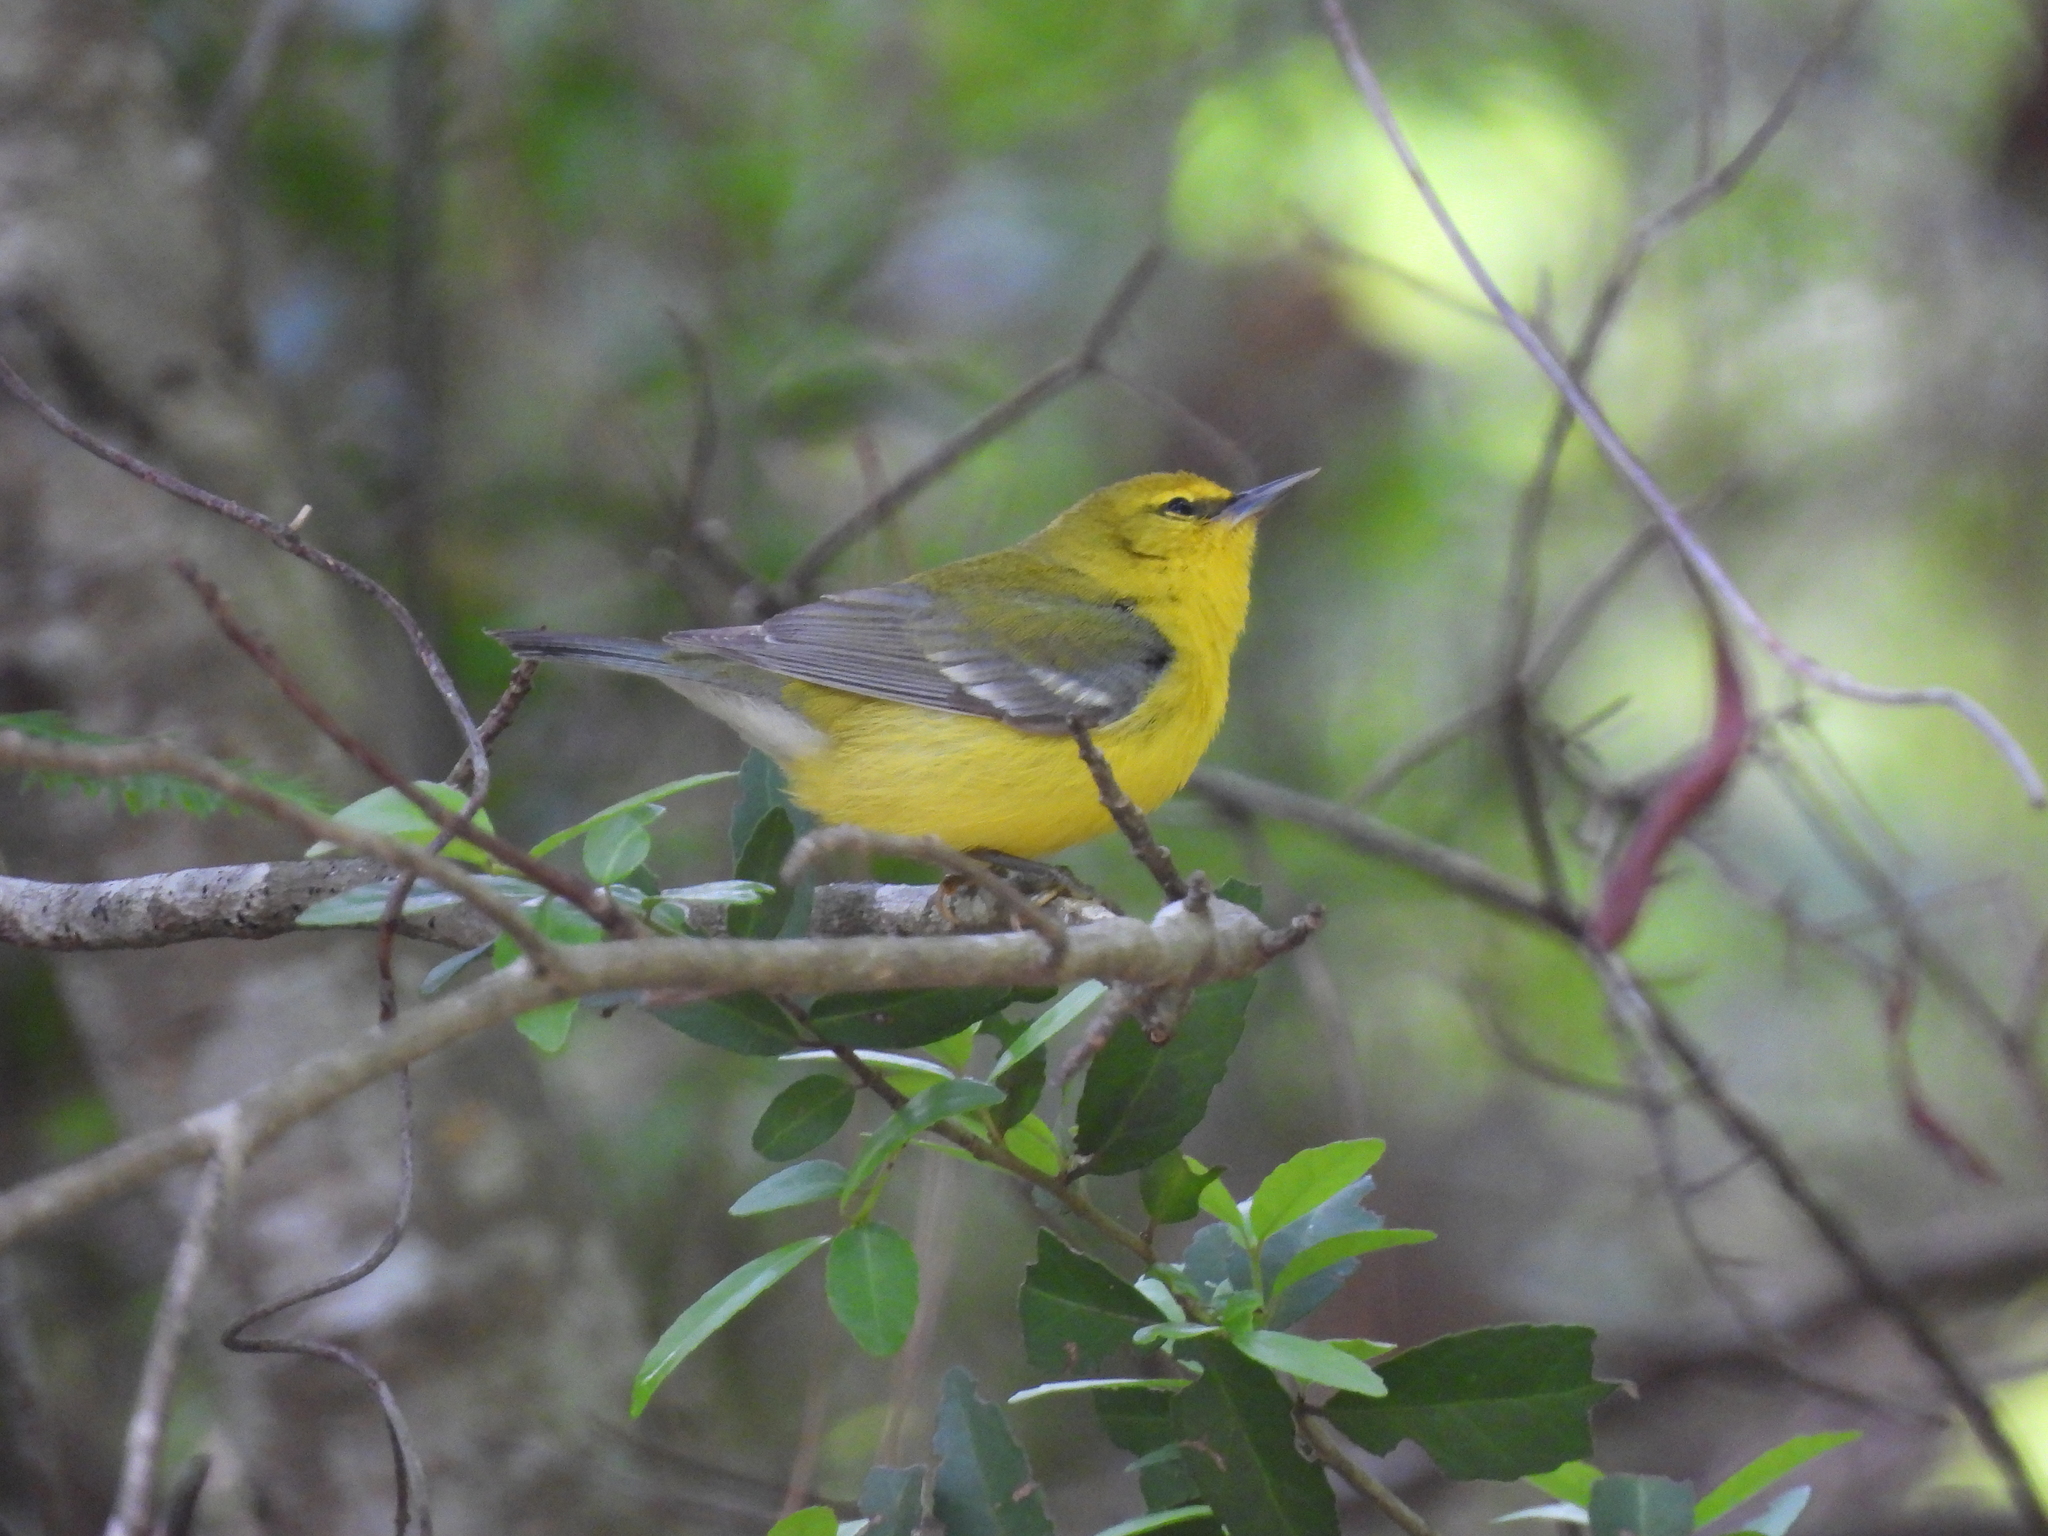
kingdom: Animalia
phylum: Chordata
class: Aves
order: Passeriformes
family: Parulidae
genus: Vermivora
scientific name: Vermivora cyanoptera
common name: Blue-winged warbler
